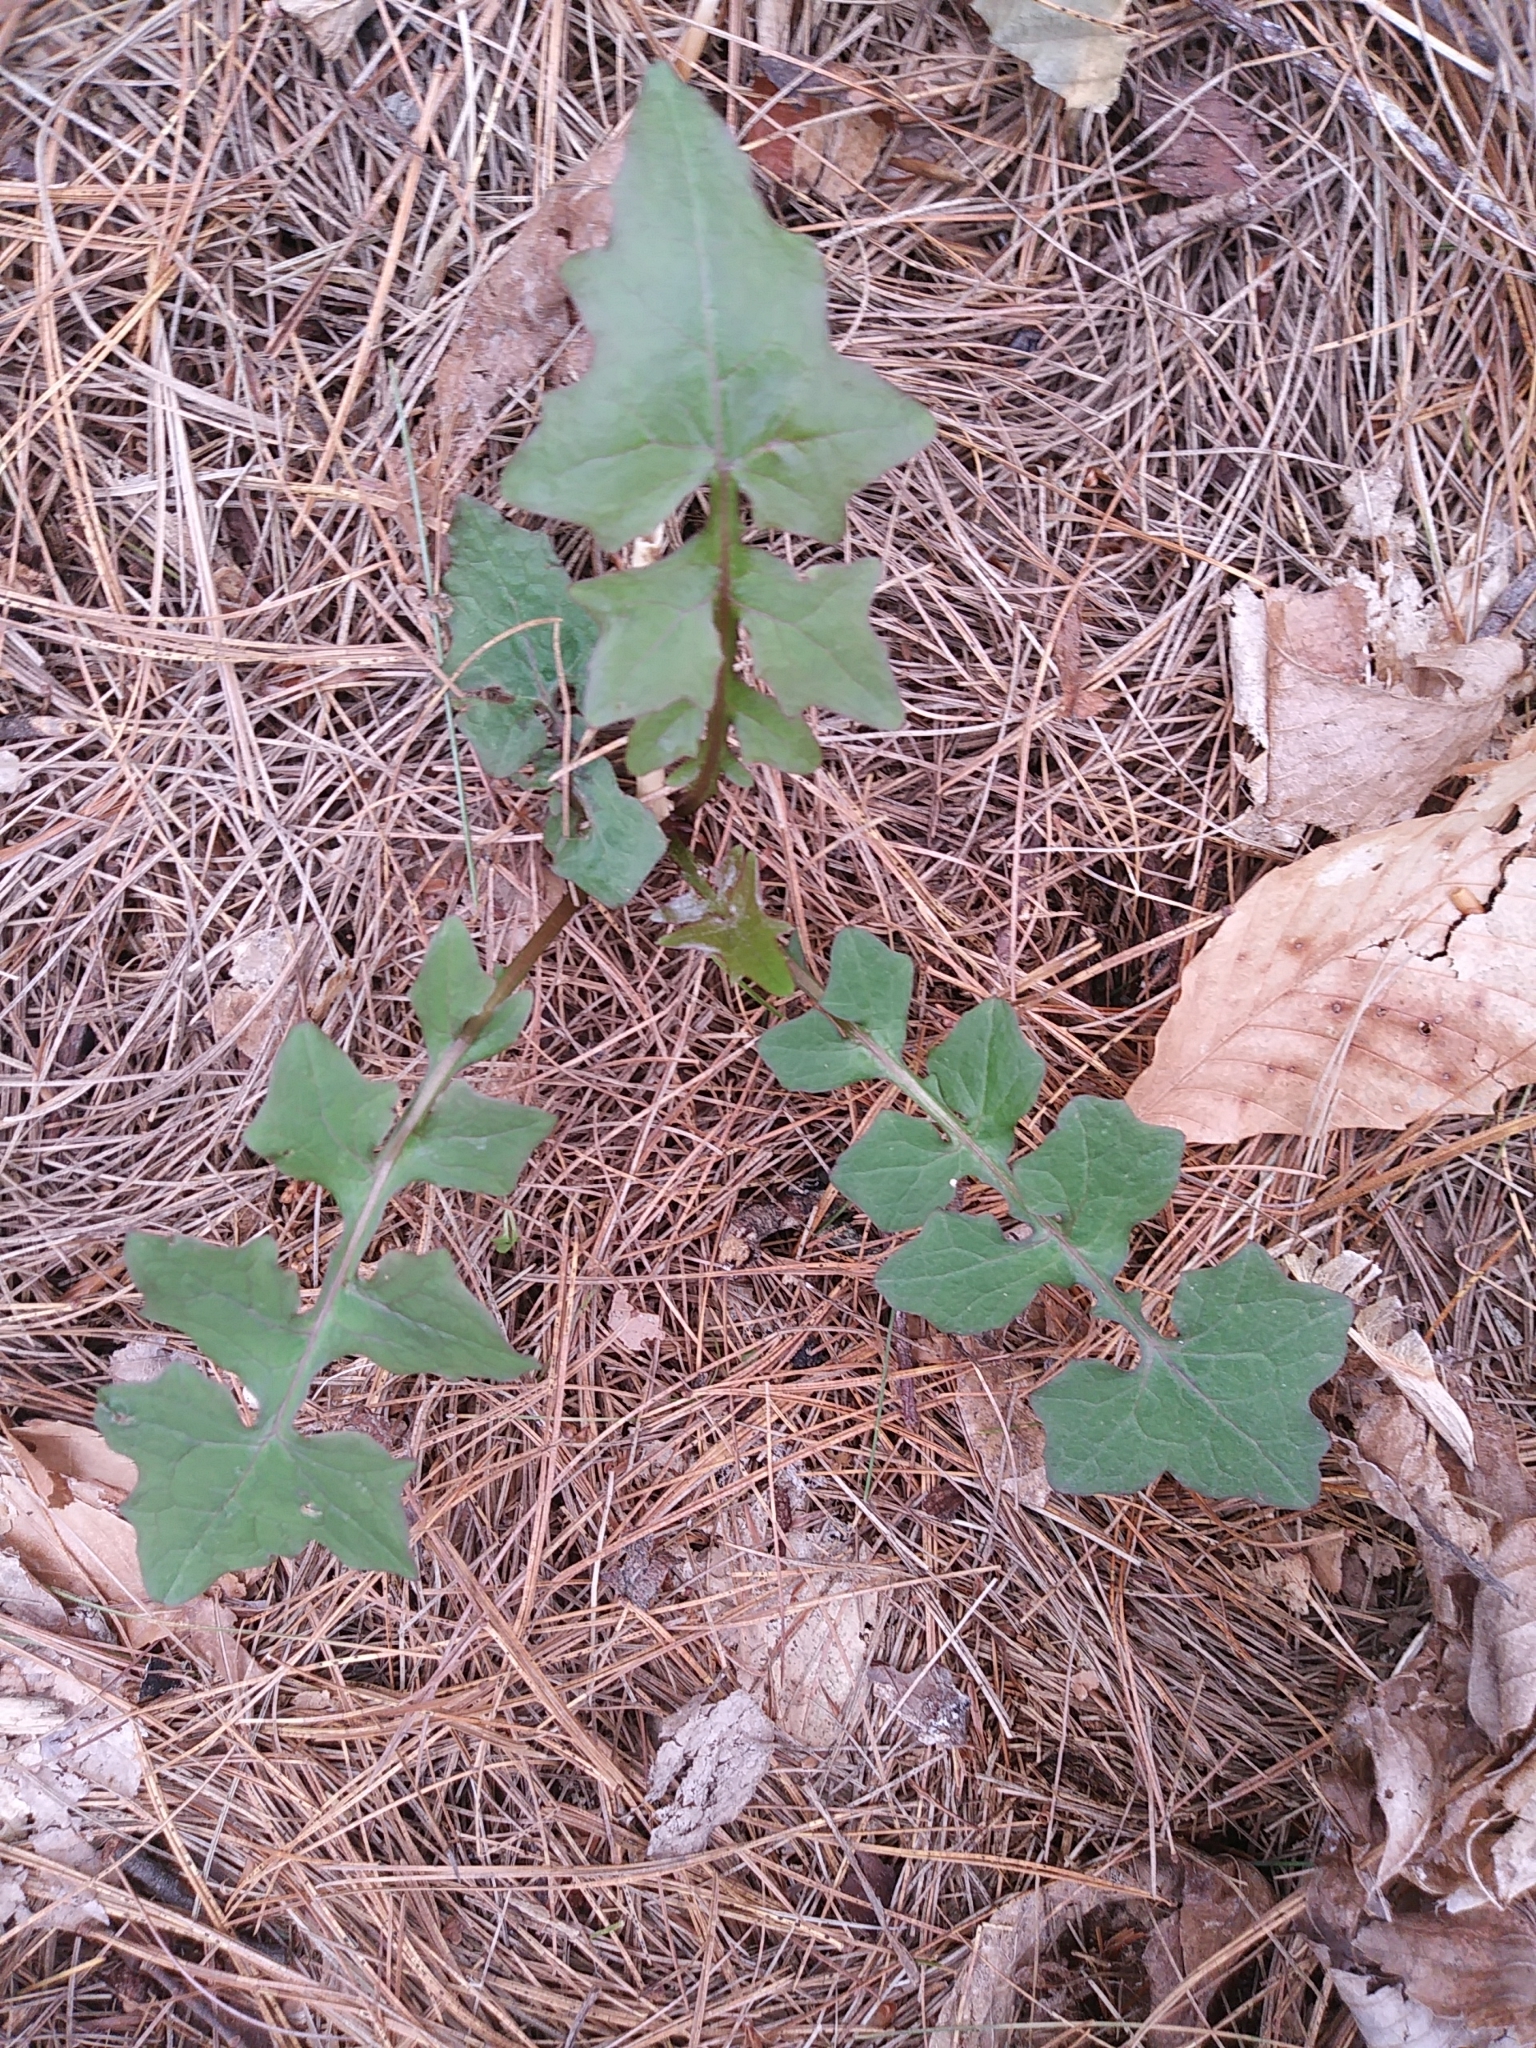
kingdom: Plantae
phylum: Tracheophyta
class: Magnoliopsida
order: Asterales
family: Asteraceae
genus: Mycelis
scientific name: Mycelis muralis
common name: Wall lettuce
